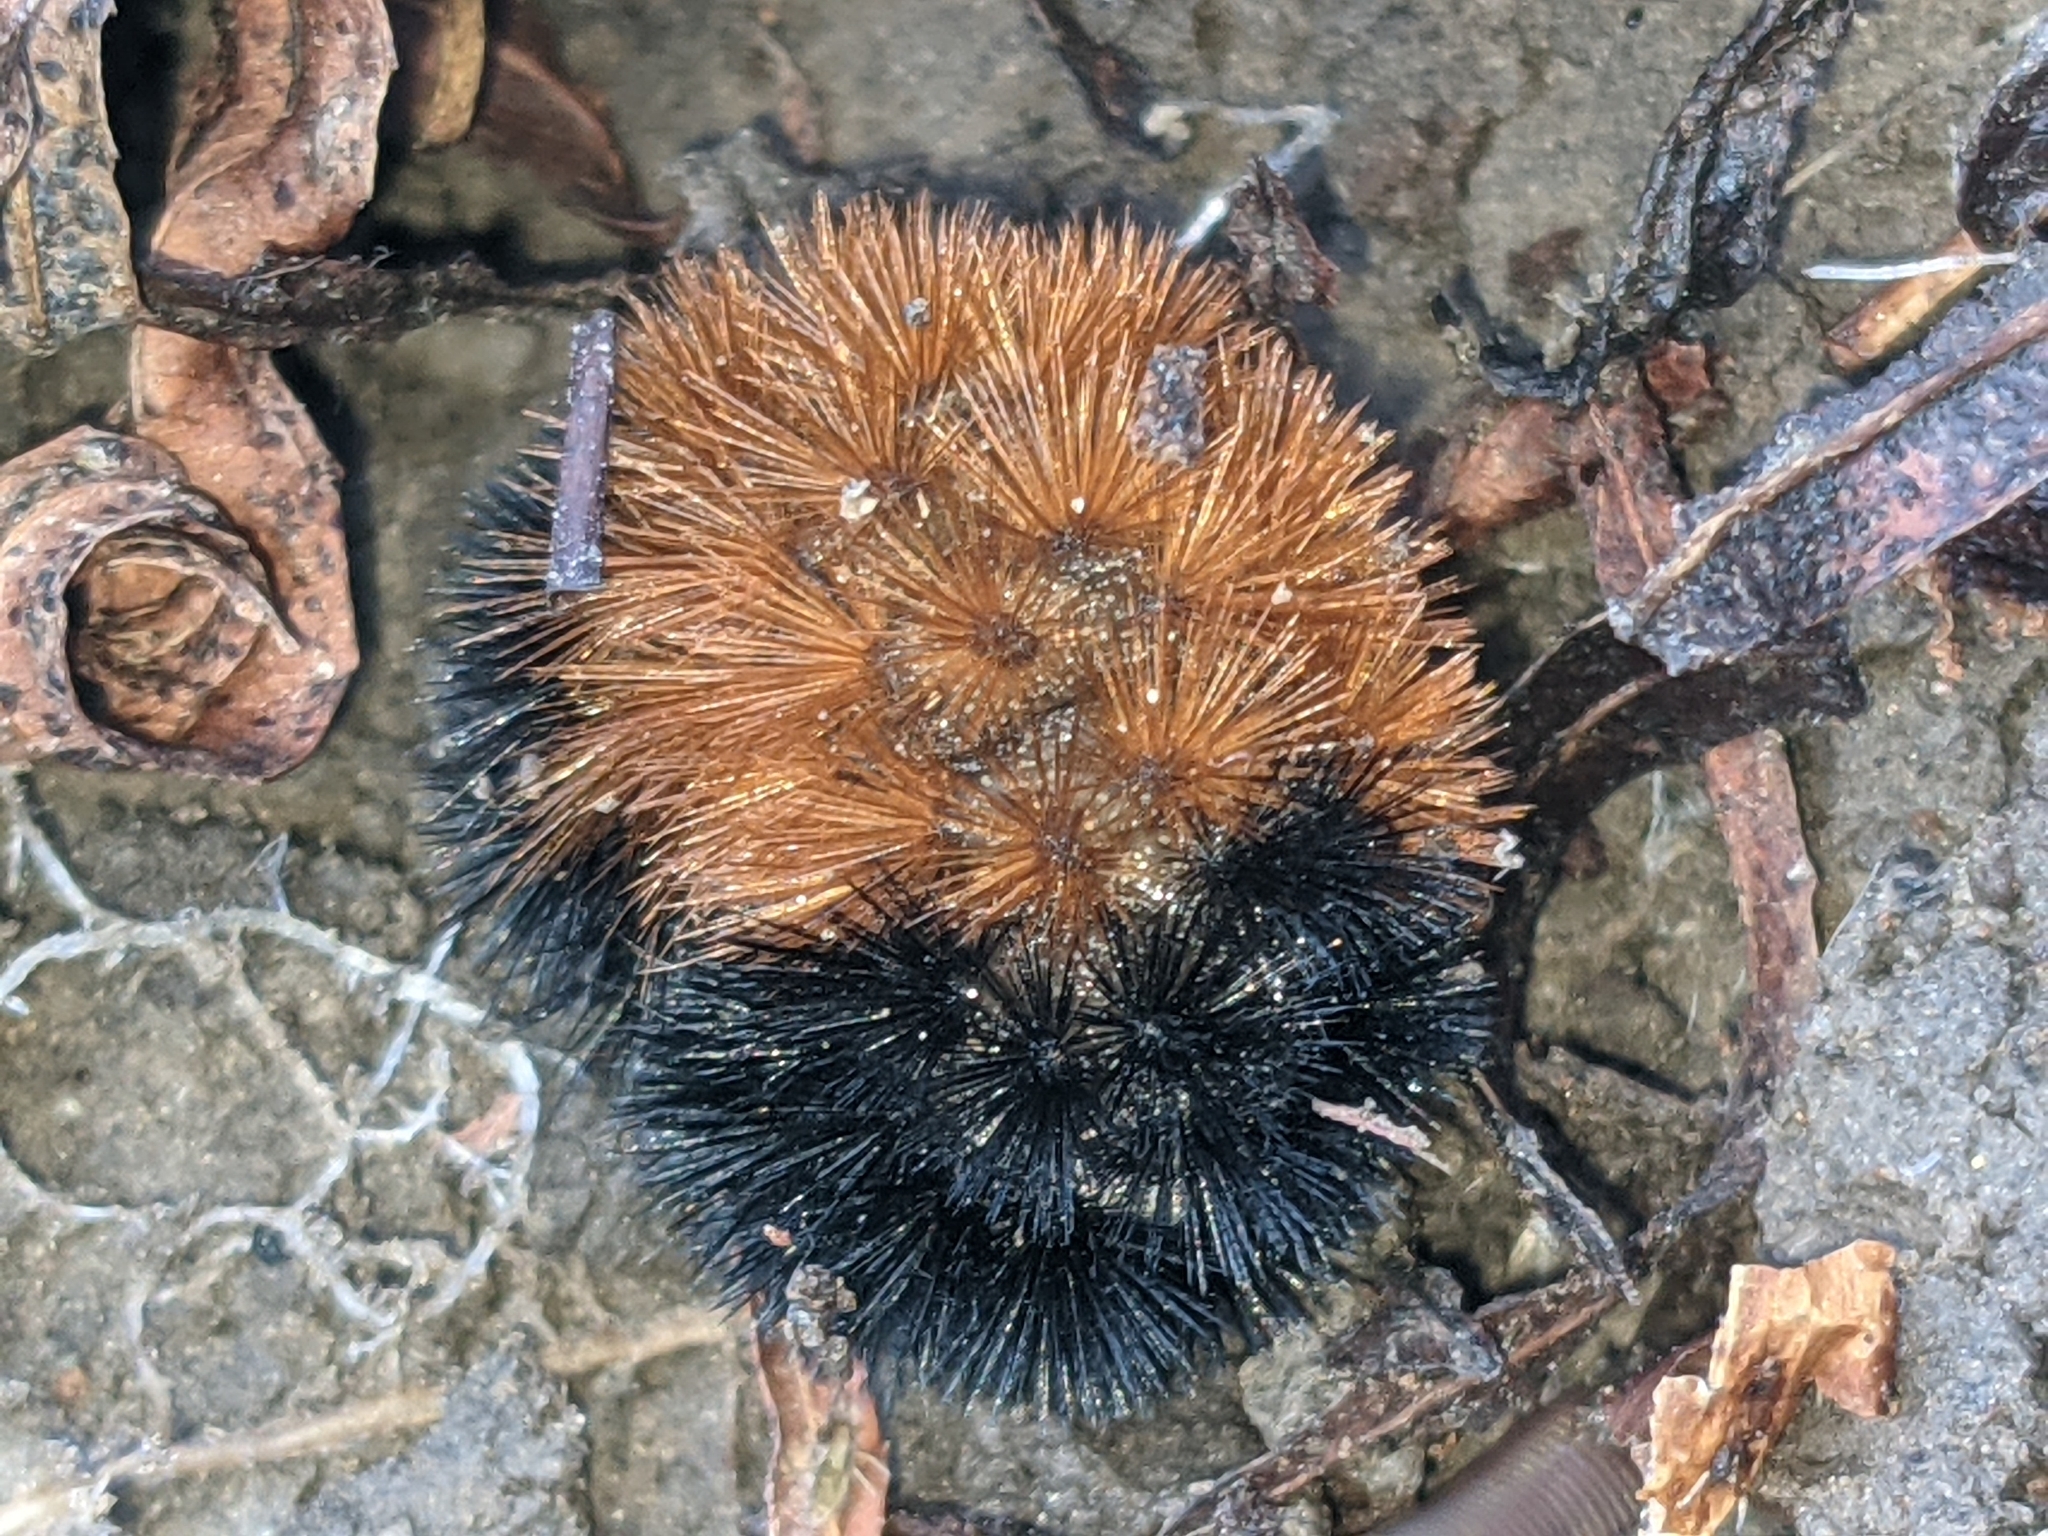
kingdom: Animalia
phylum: Arthropoda
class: Insecta
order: Lepidoptera
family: Erebidae
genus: Pyrrharctia
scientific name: Pyrrharctia isabella
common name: Isabella tiger moth
